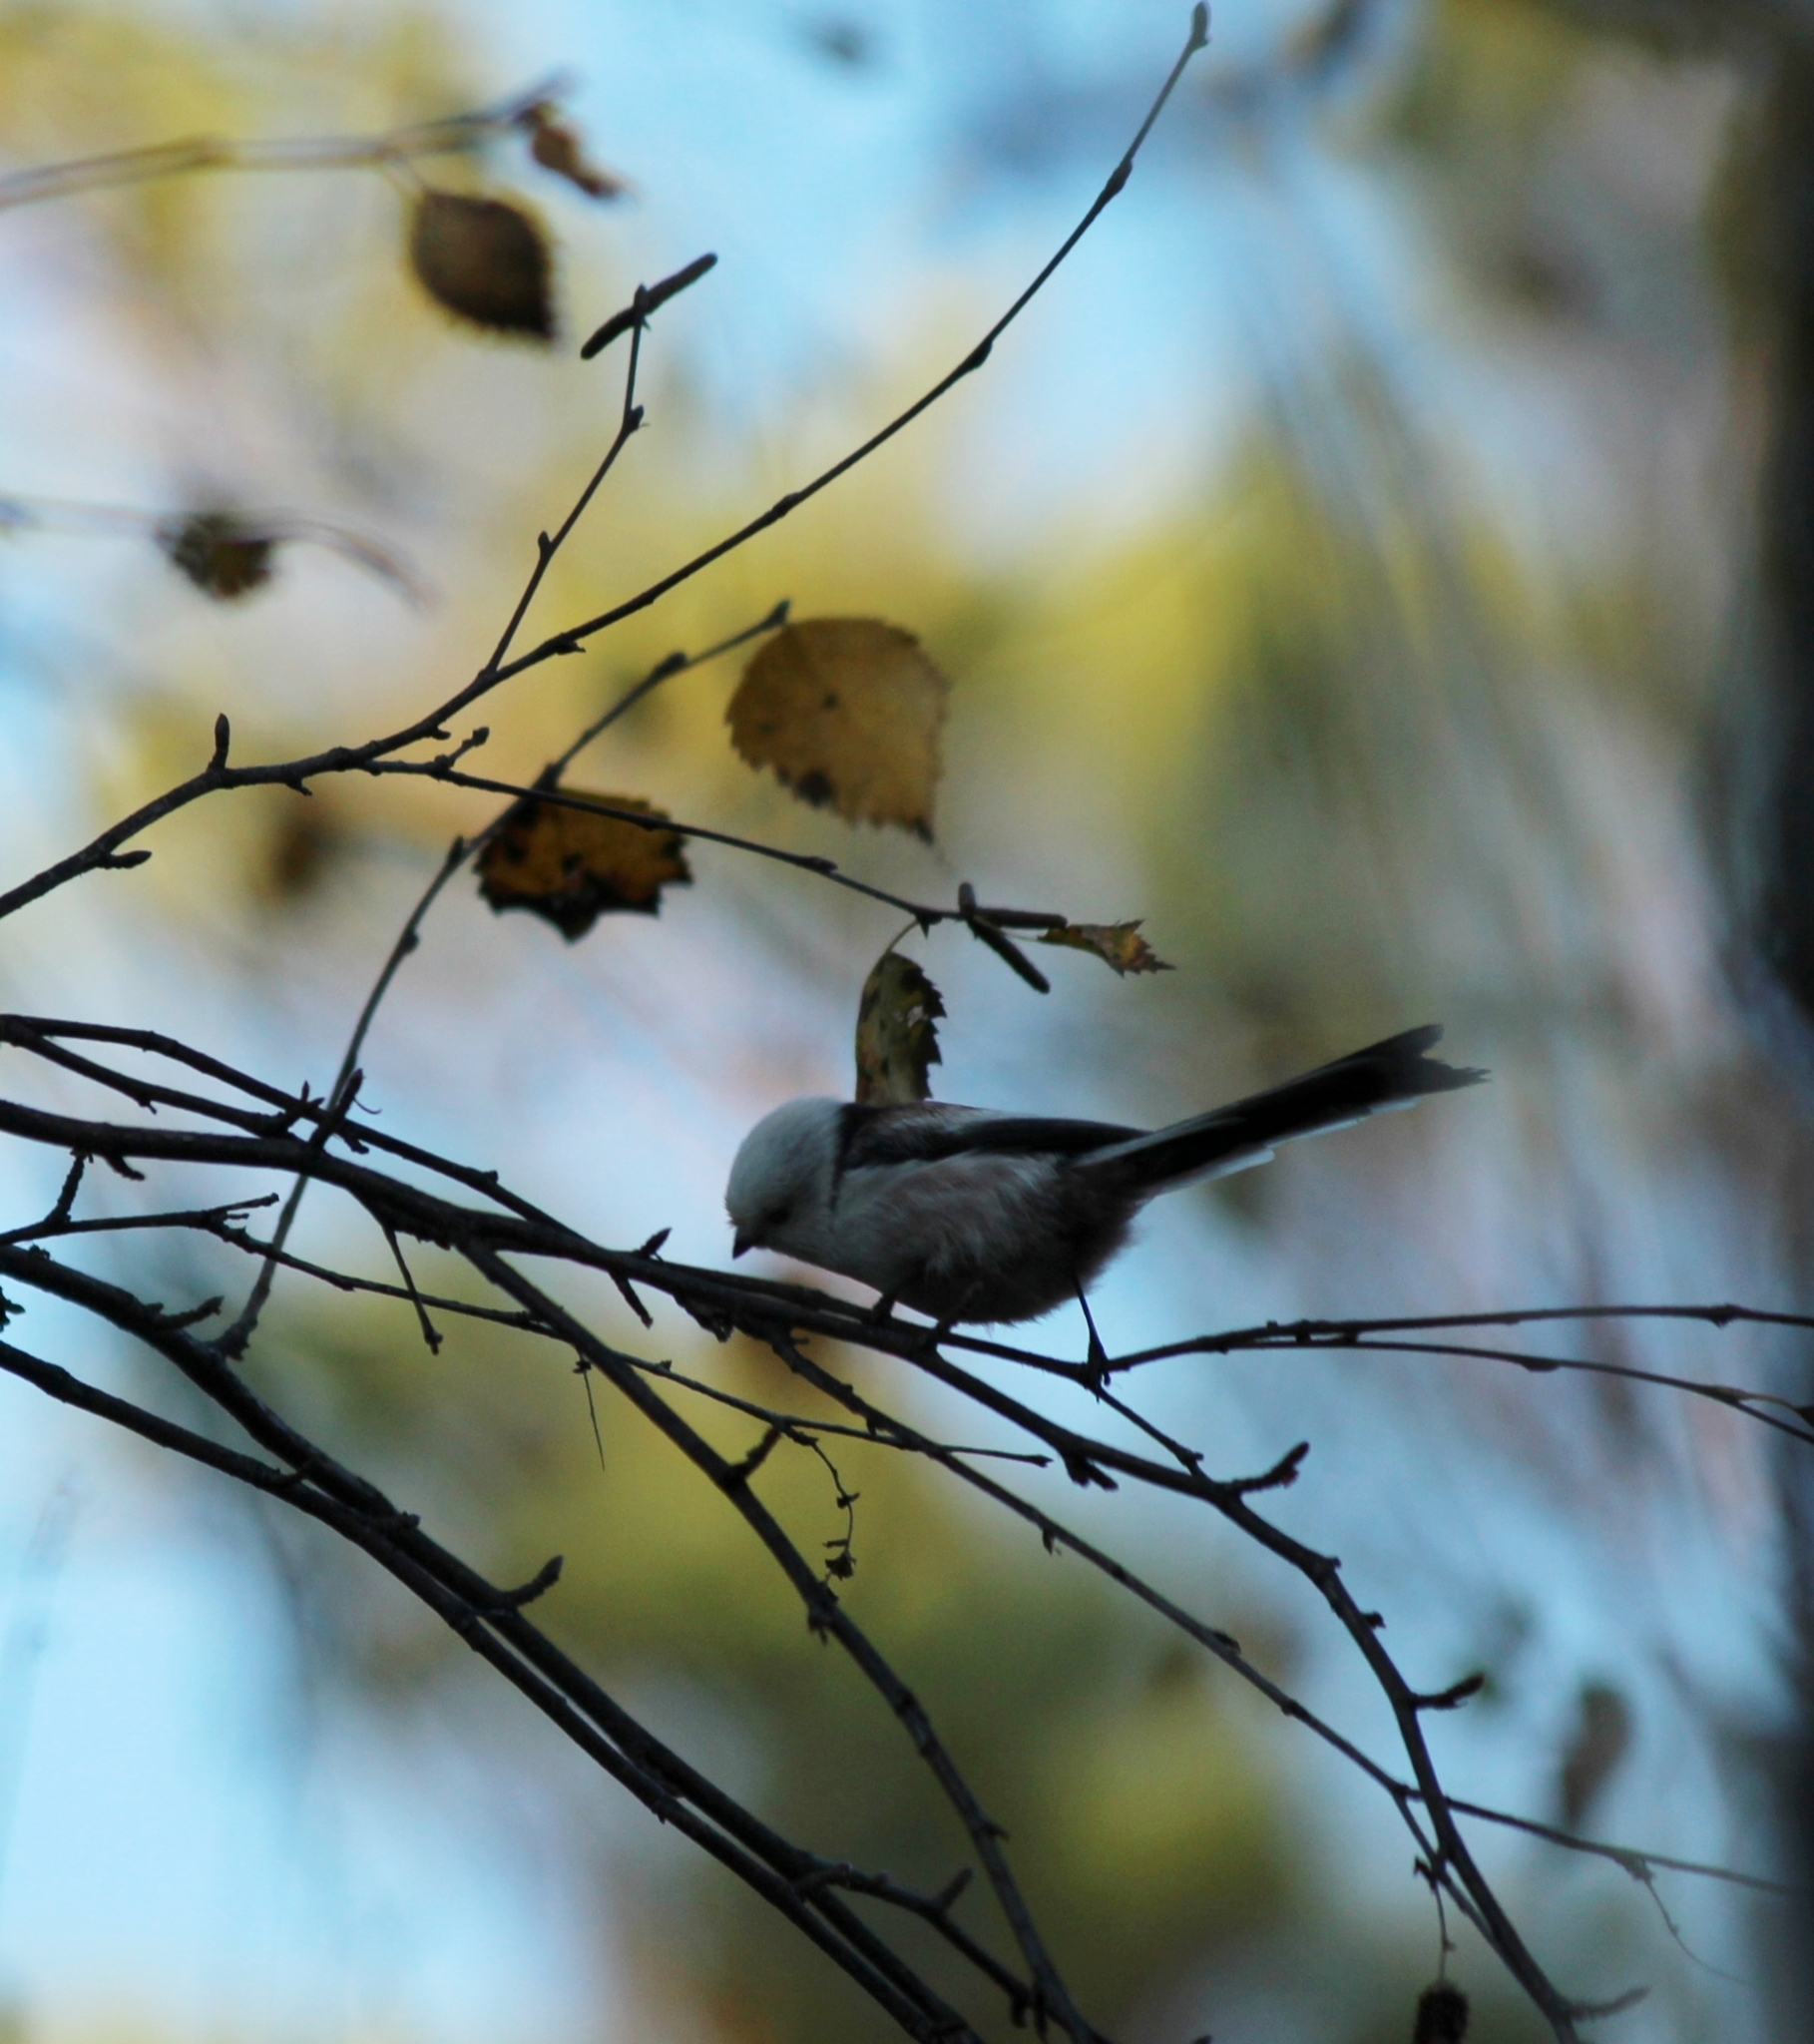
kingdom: Animalia
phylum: Chordata
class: Aves
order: Passeriformes
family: Aegithalidae
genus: Aegithalos
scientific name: Aegithalos caudatus
